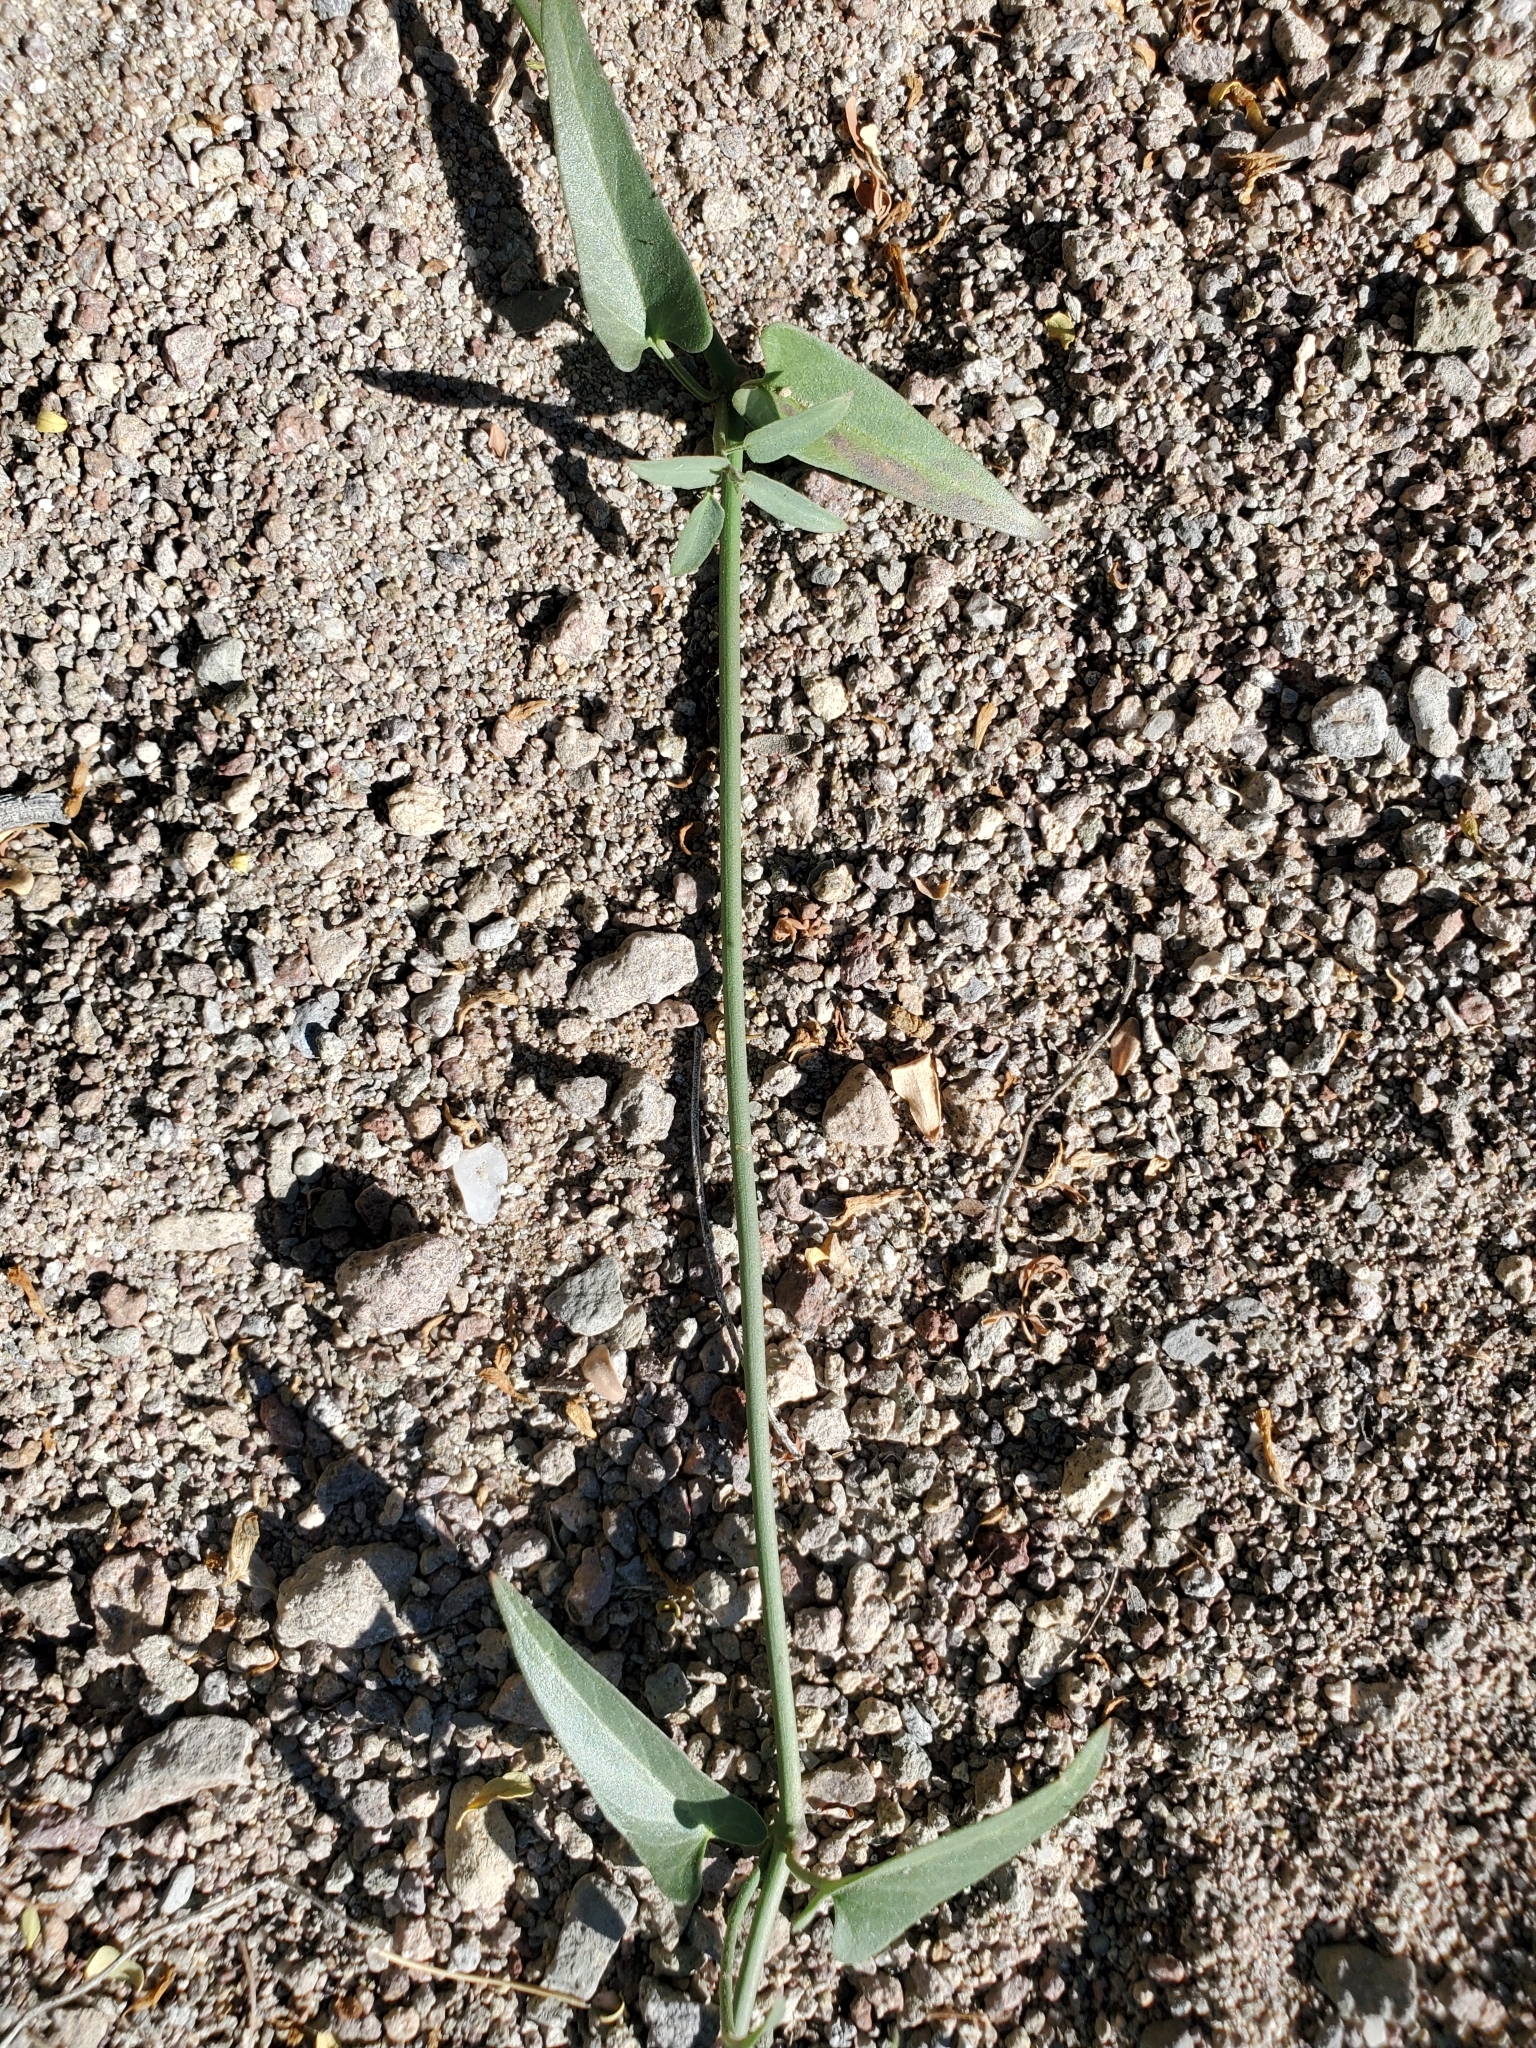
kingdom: Plantae
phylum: Tracheophyta
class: Magnoliopsida
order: Gentianales
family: Apocynaceae
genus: Funastrum
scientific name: Funastrum heterophyllum
